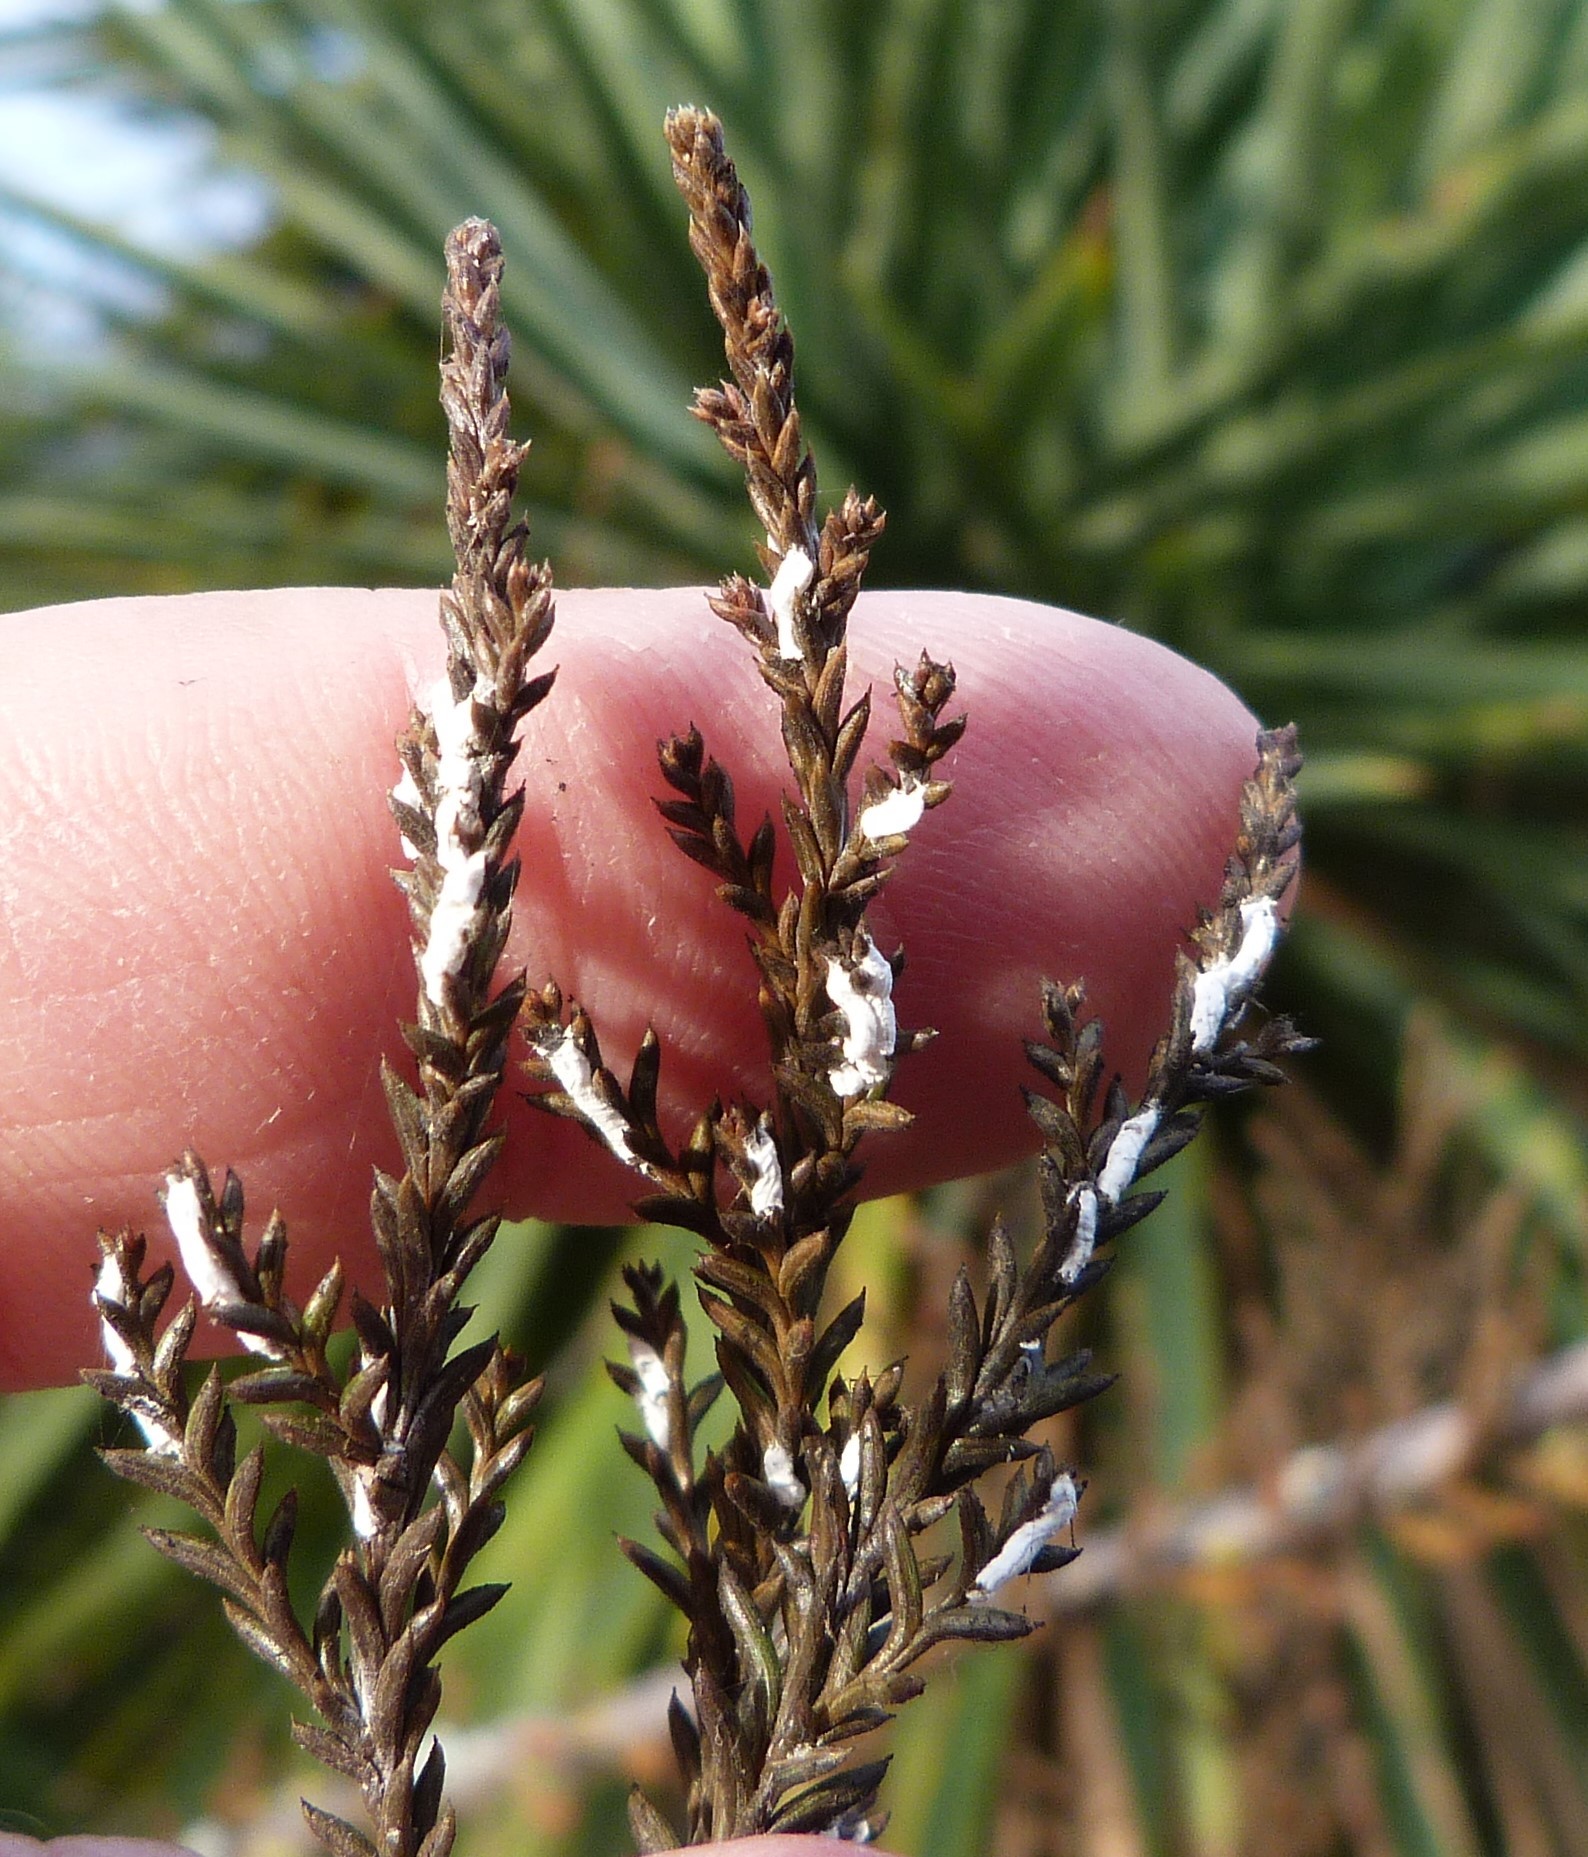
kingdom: Animalia
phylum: Arthropoda
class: Insecta
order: Hemiptera
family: Pseudococcidae
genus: Paraferrisia
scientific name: Paraferrisia podocarpi
